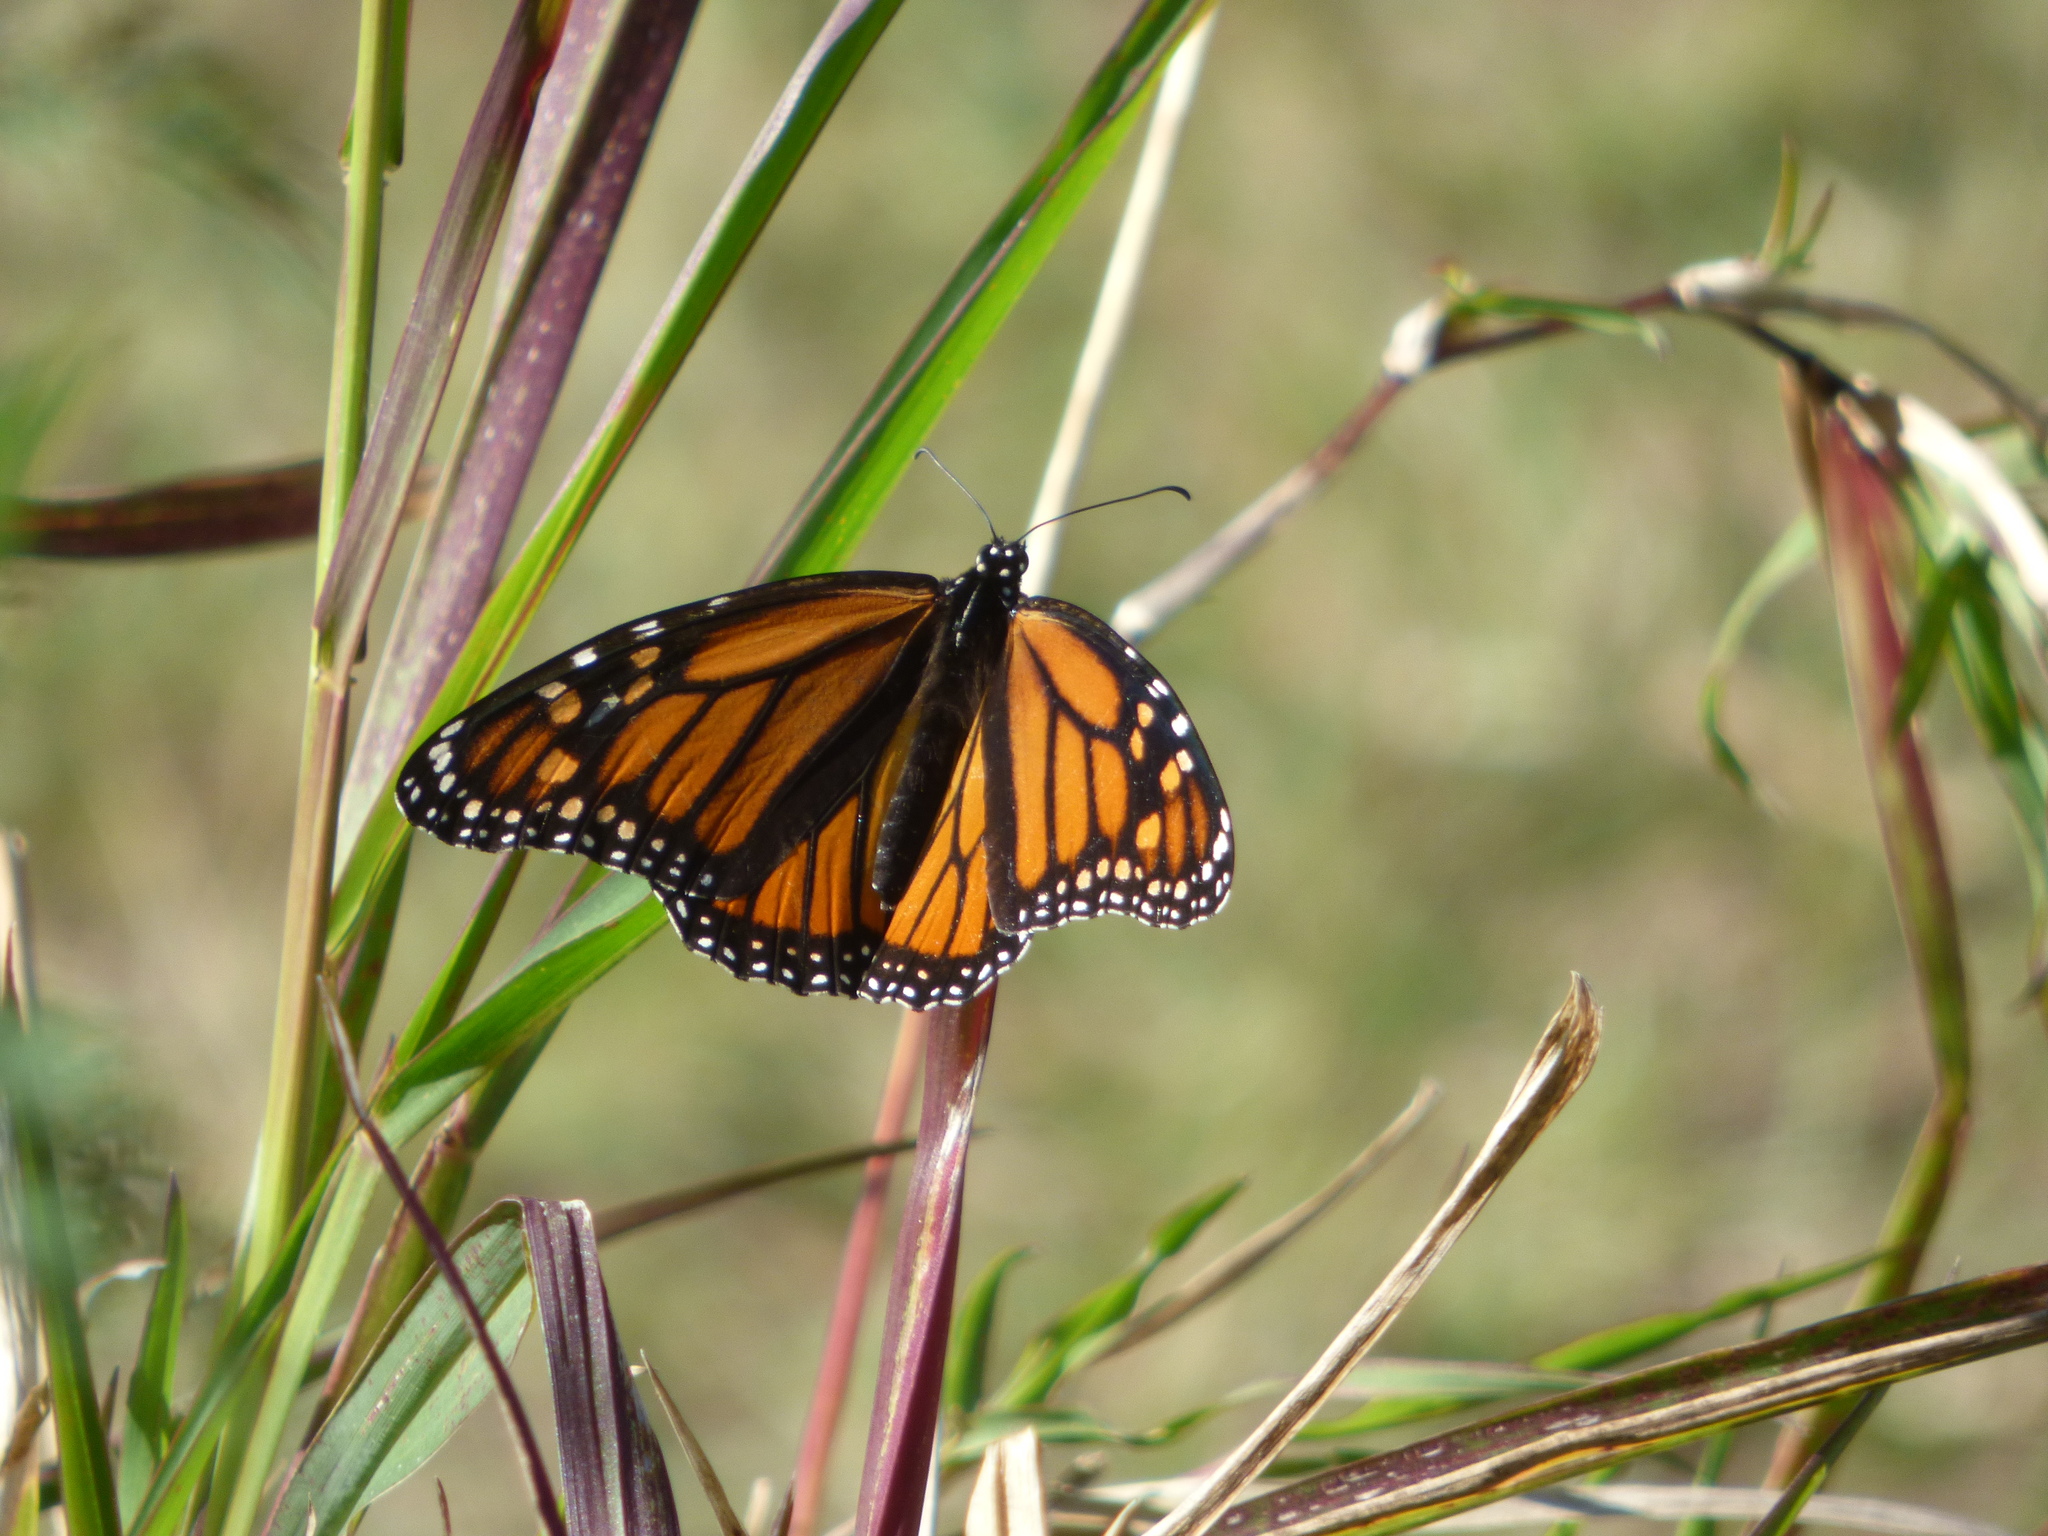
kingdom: Animalia
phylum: Arthropoda
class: Insecta
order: Lepidoptera
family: Nymphalidae
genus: Danaus
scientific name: Danaus plexippus
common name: Monarch
